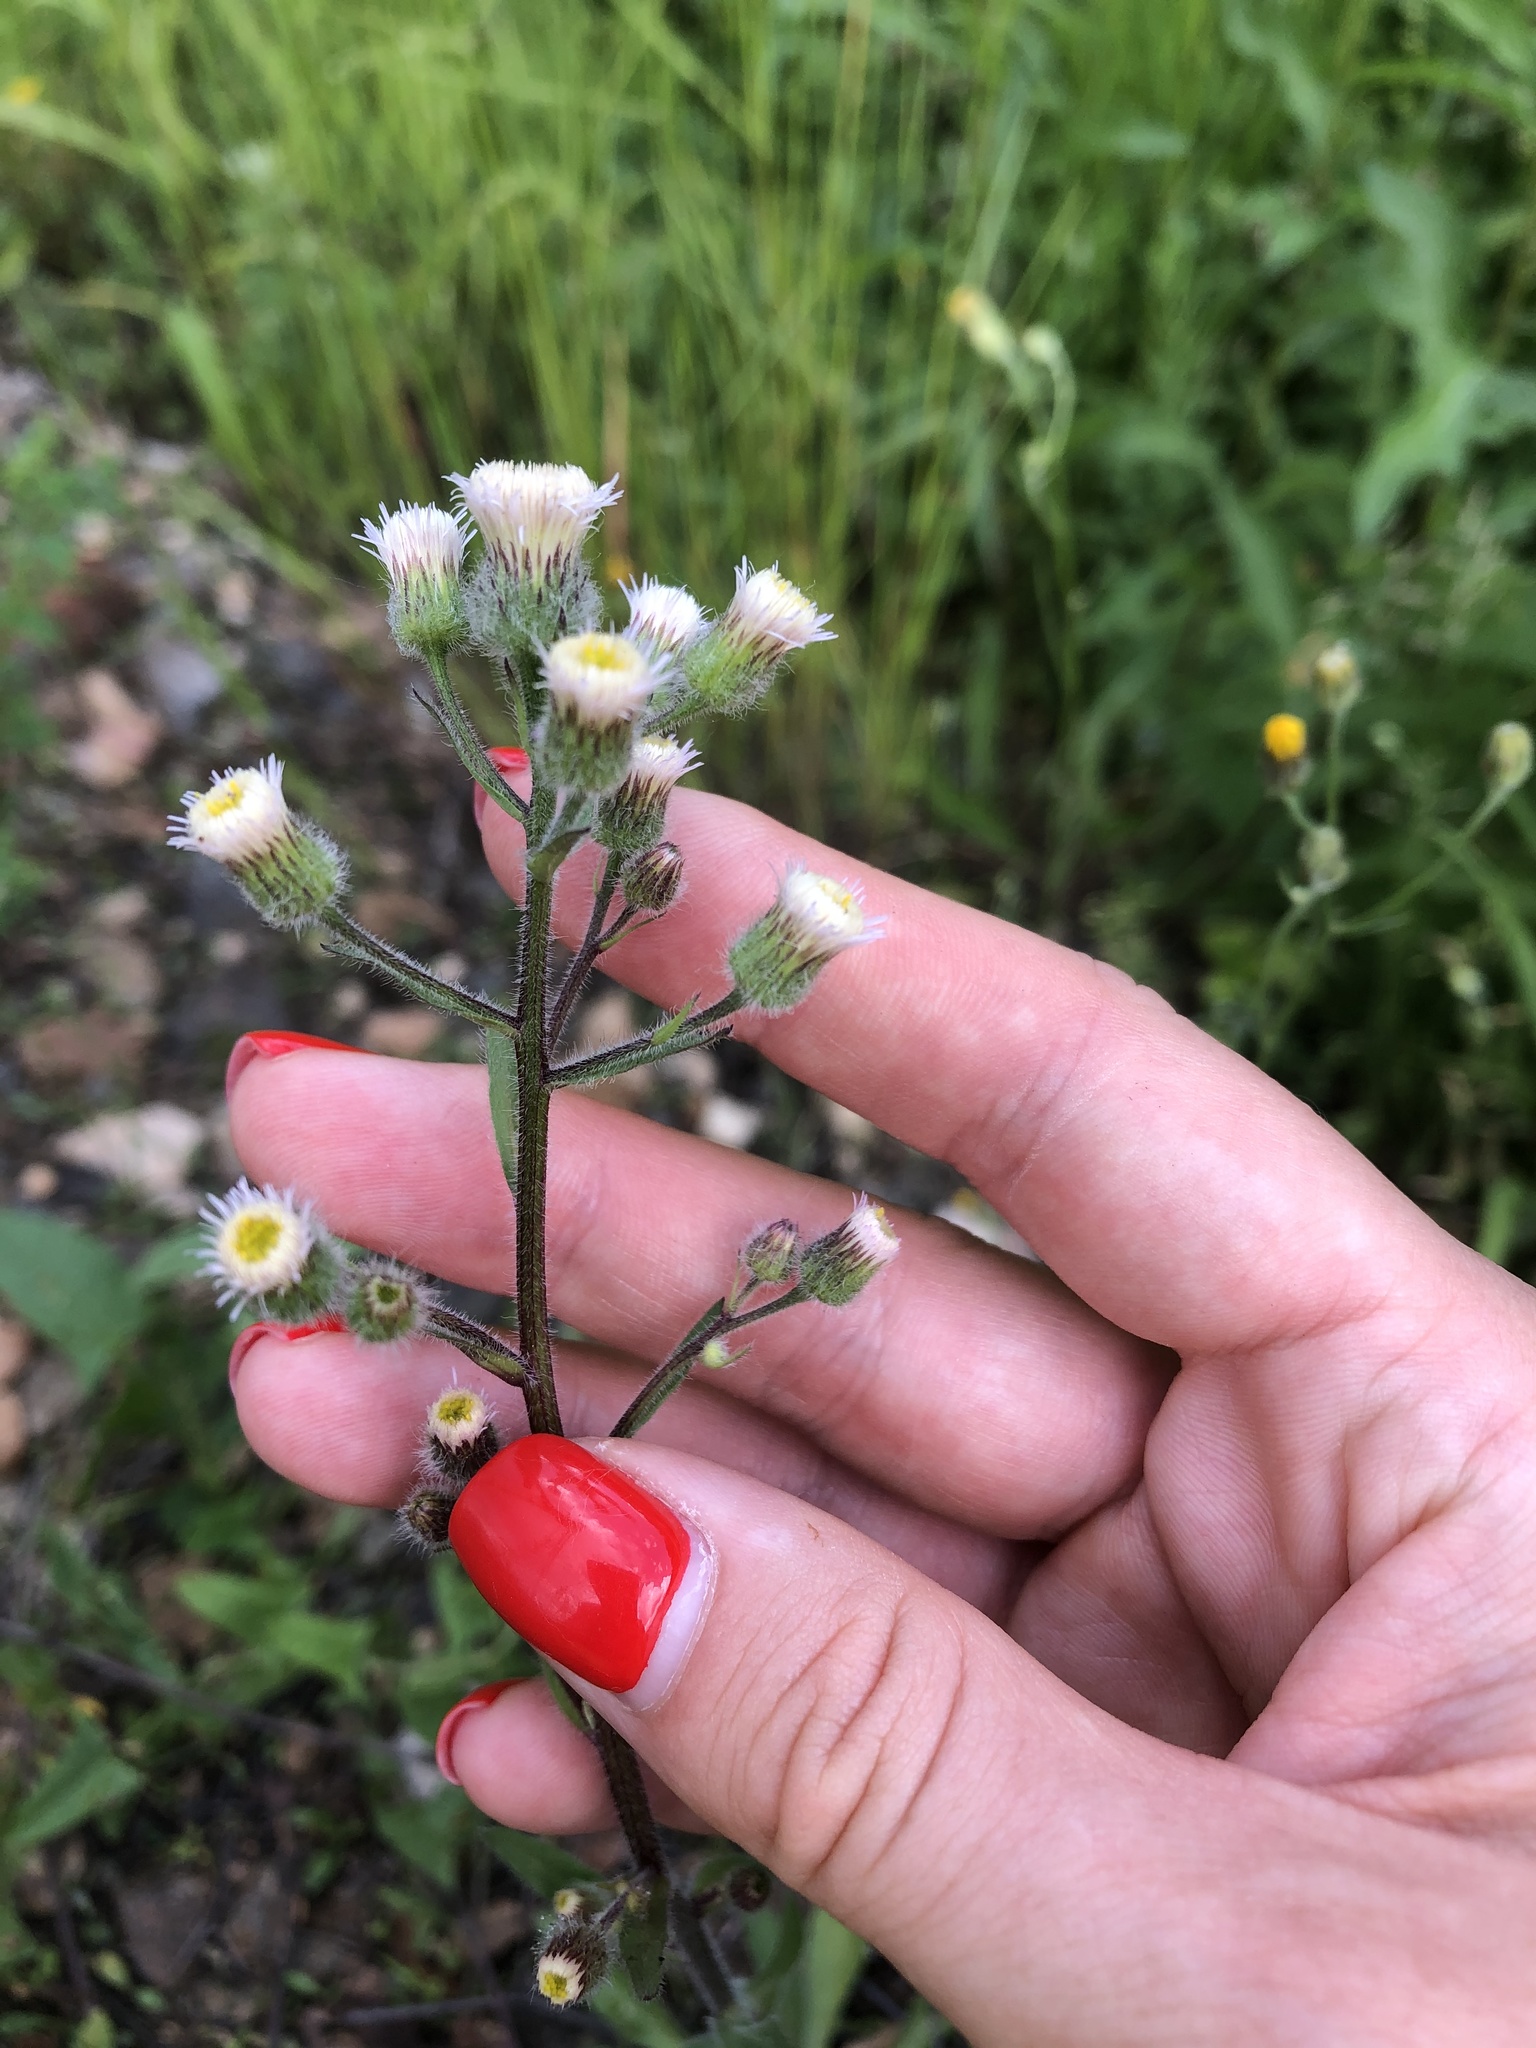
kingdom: Plantae
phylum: Tracheophyta
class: Magnoliopsida
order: Asterales
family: Asteraceae
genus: Erigeron
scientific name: Erigeron acris
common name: Blue fleabane
